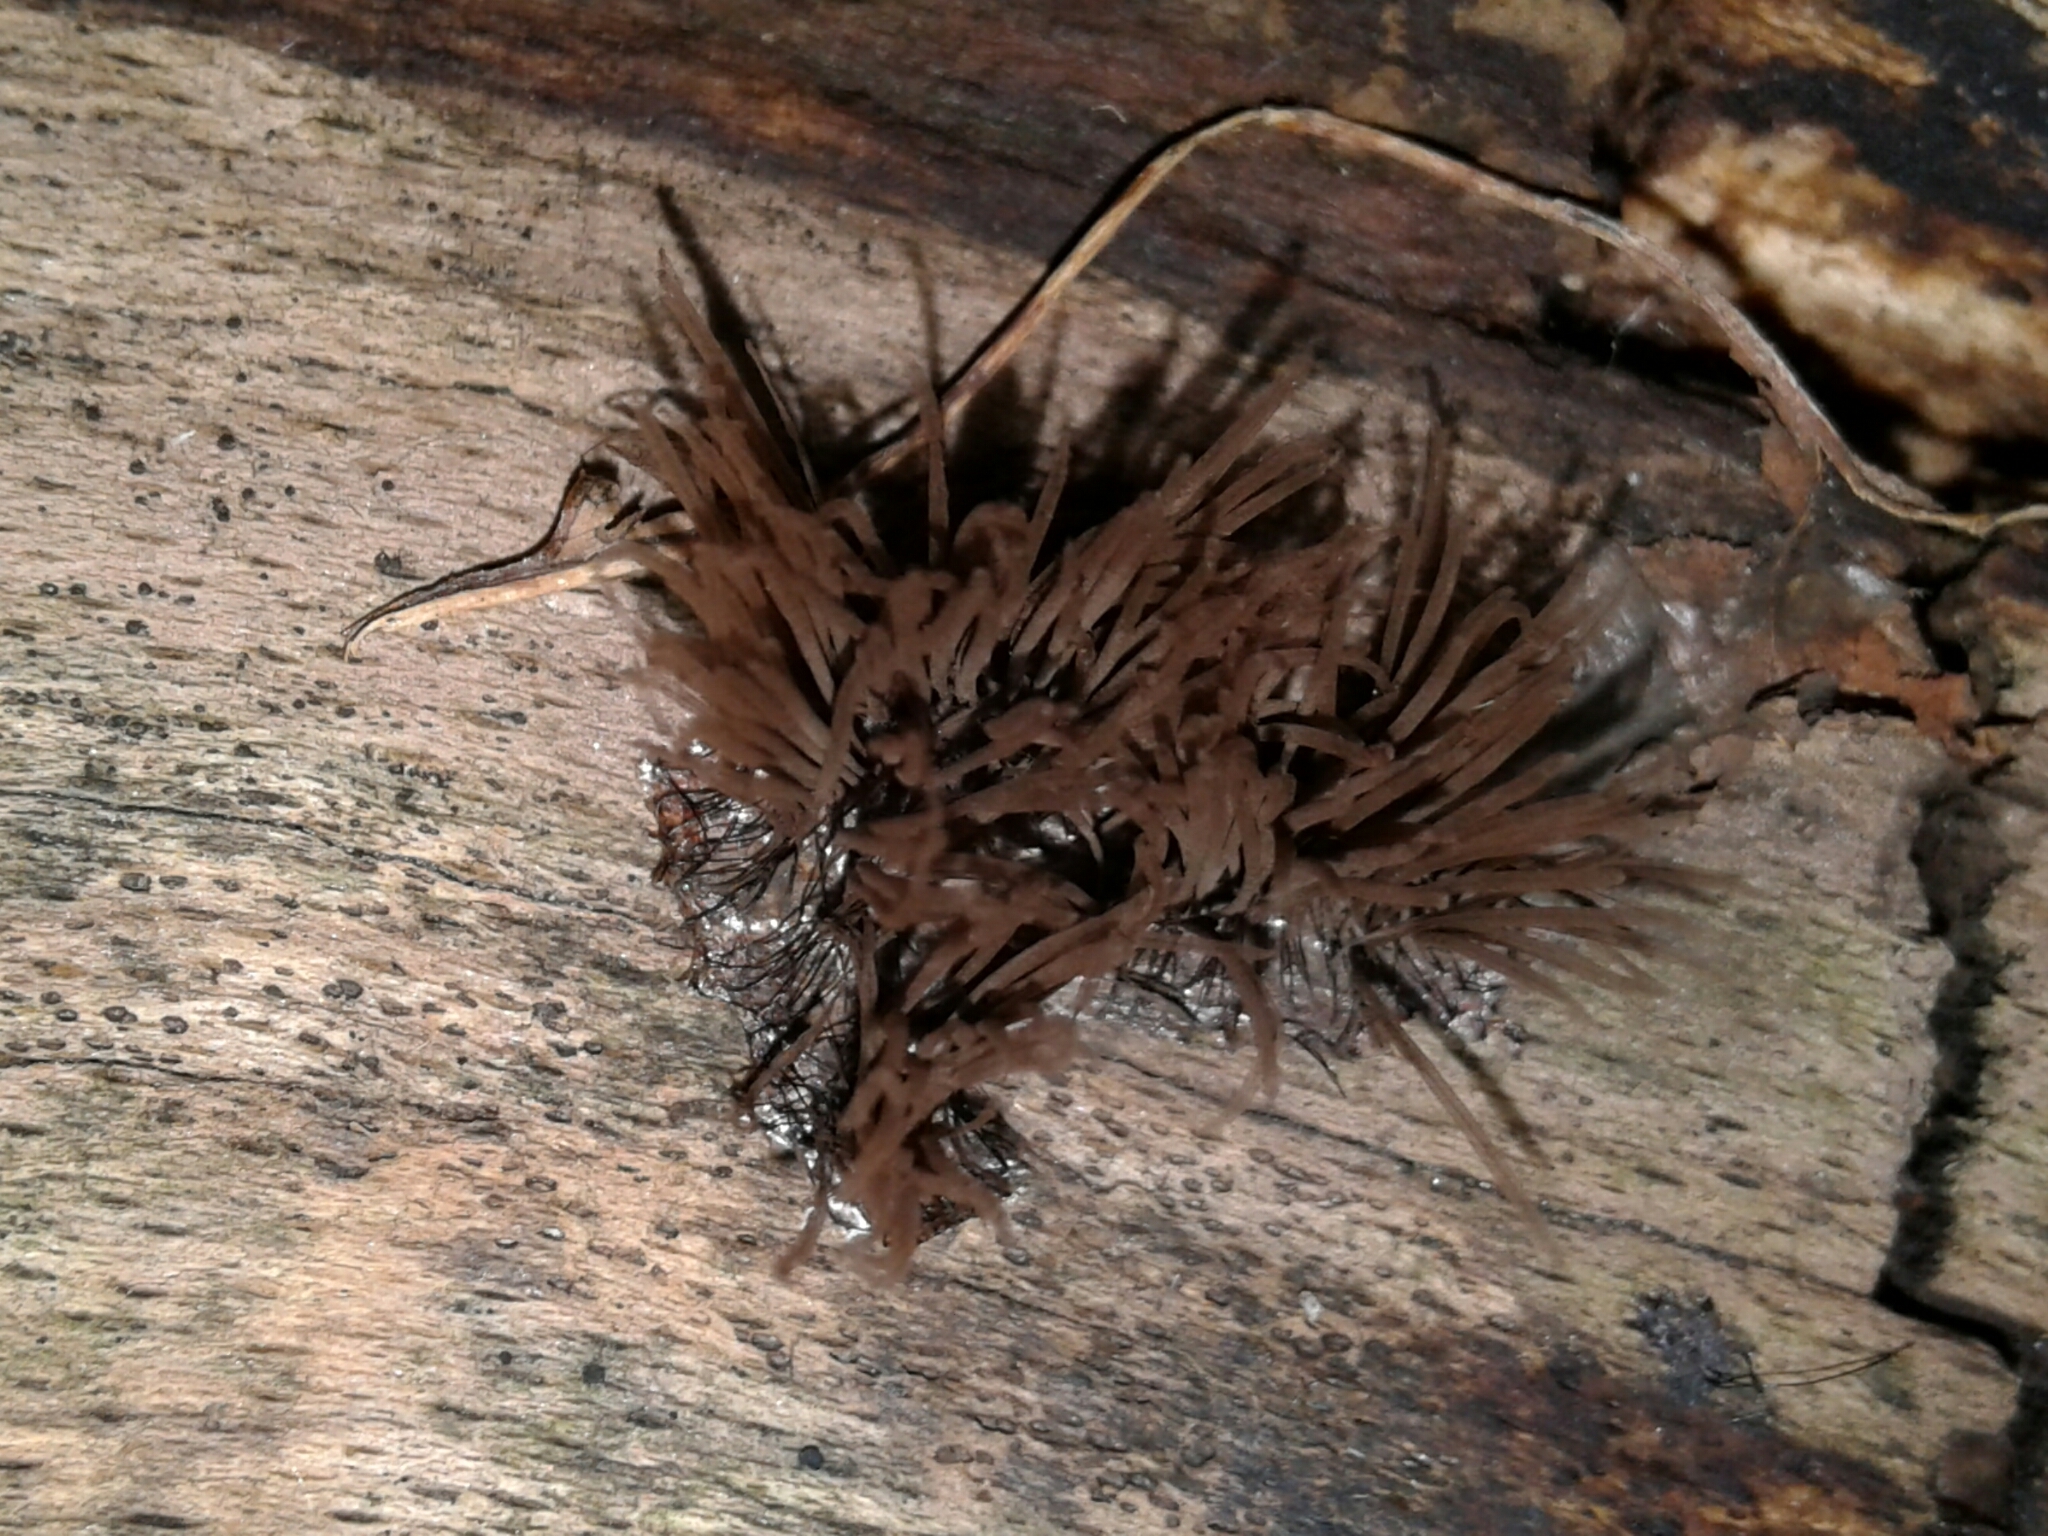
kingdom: Protozoa
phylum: Mycetozoa
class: Myxomycetes
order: Stemonitidales
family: Stemonitidaceae
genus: Stemonitis
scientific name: Stemonitis splendens
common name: Chocolate tube slime
